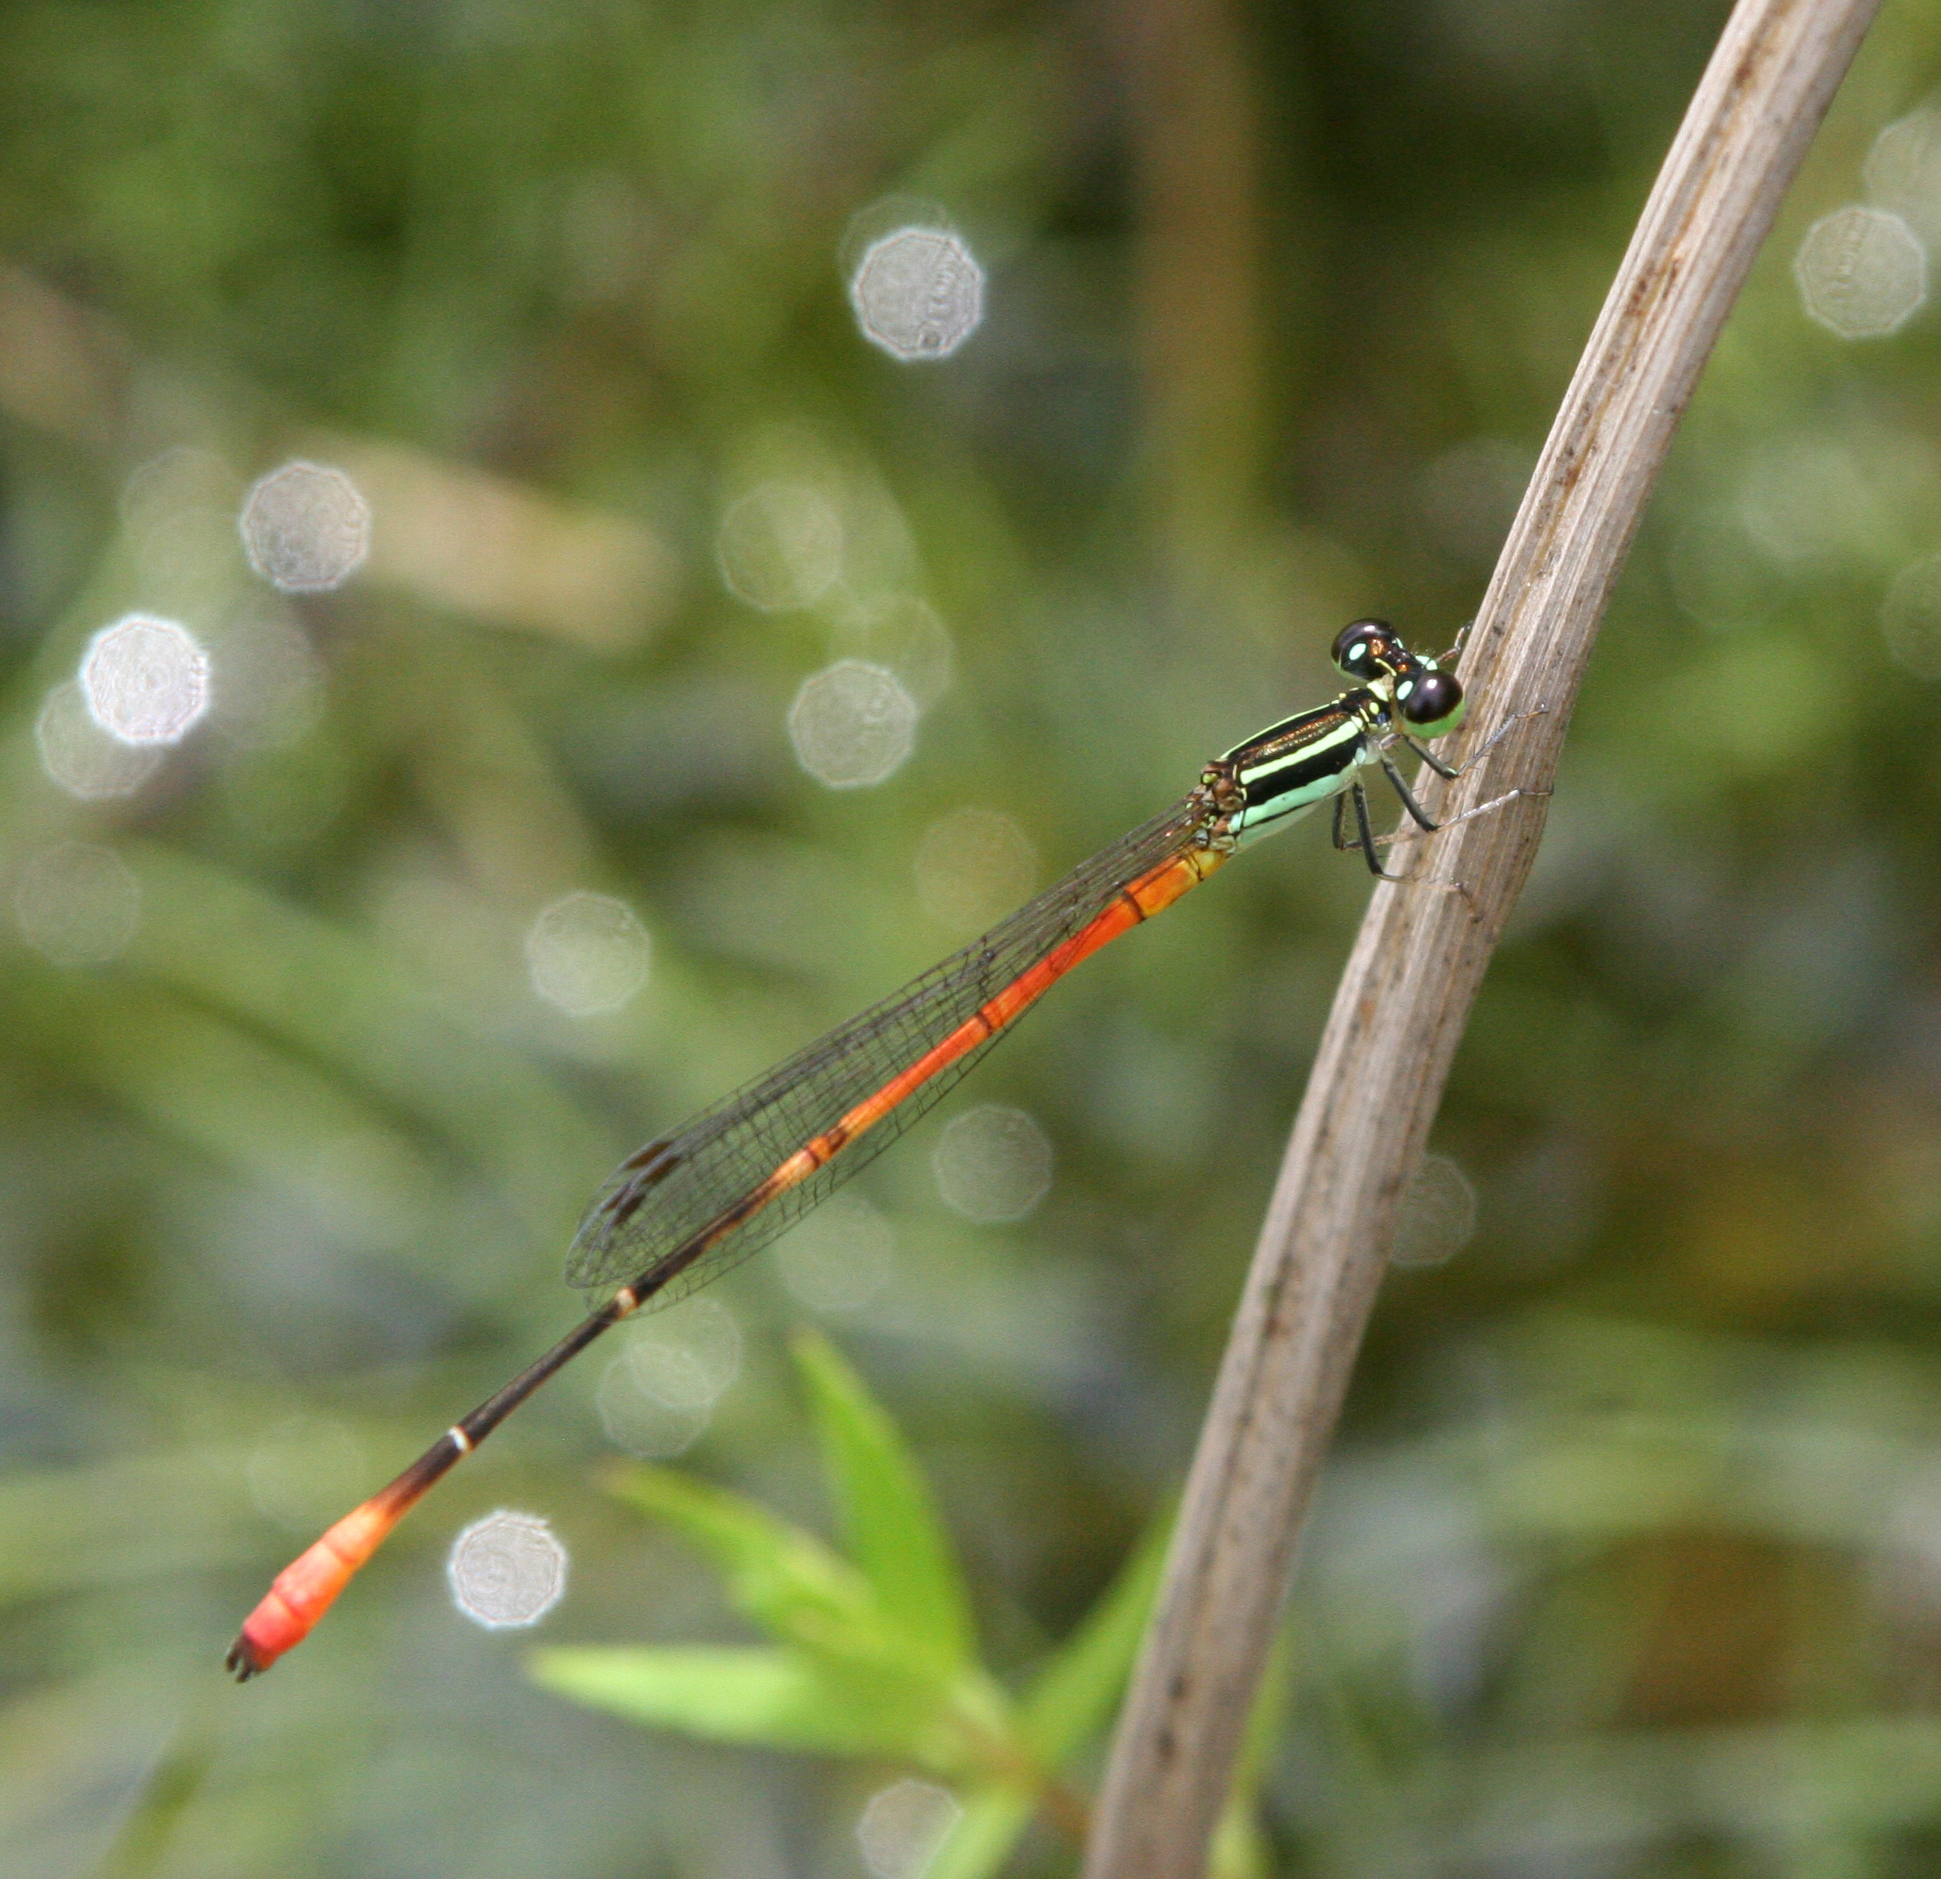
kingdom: Animalia
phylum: Arthropoda
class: Insecta
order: Odonata
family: Coenagrionidae
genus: Argiocnemis
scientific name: Argiocnemis rubescens
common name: Red-tipped shadefly
